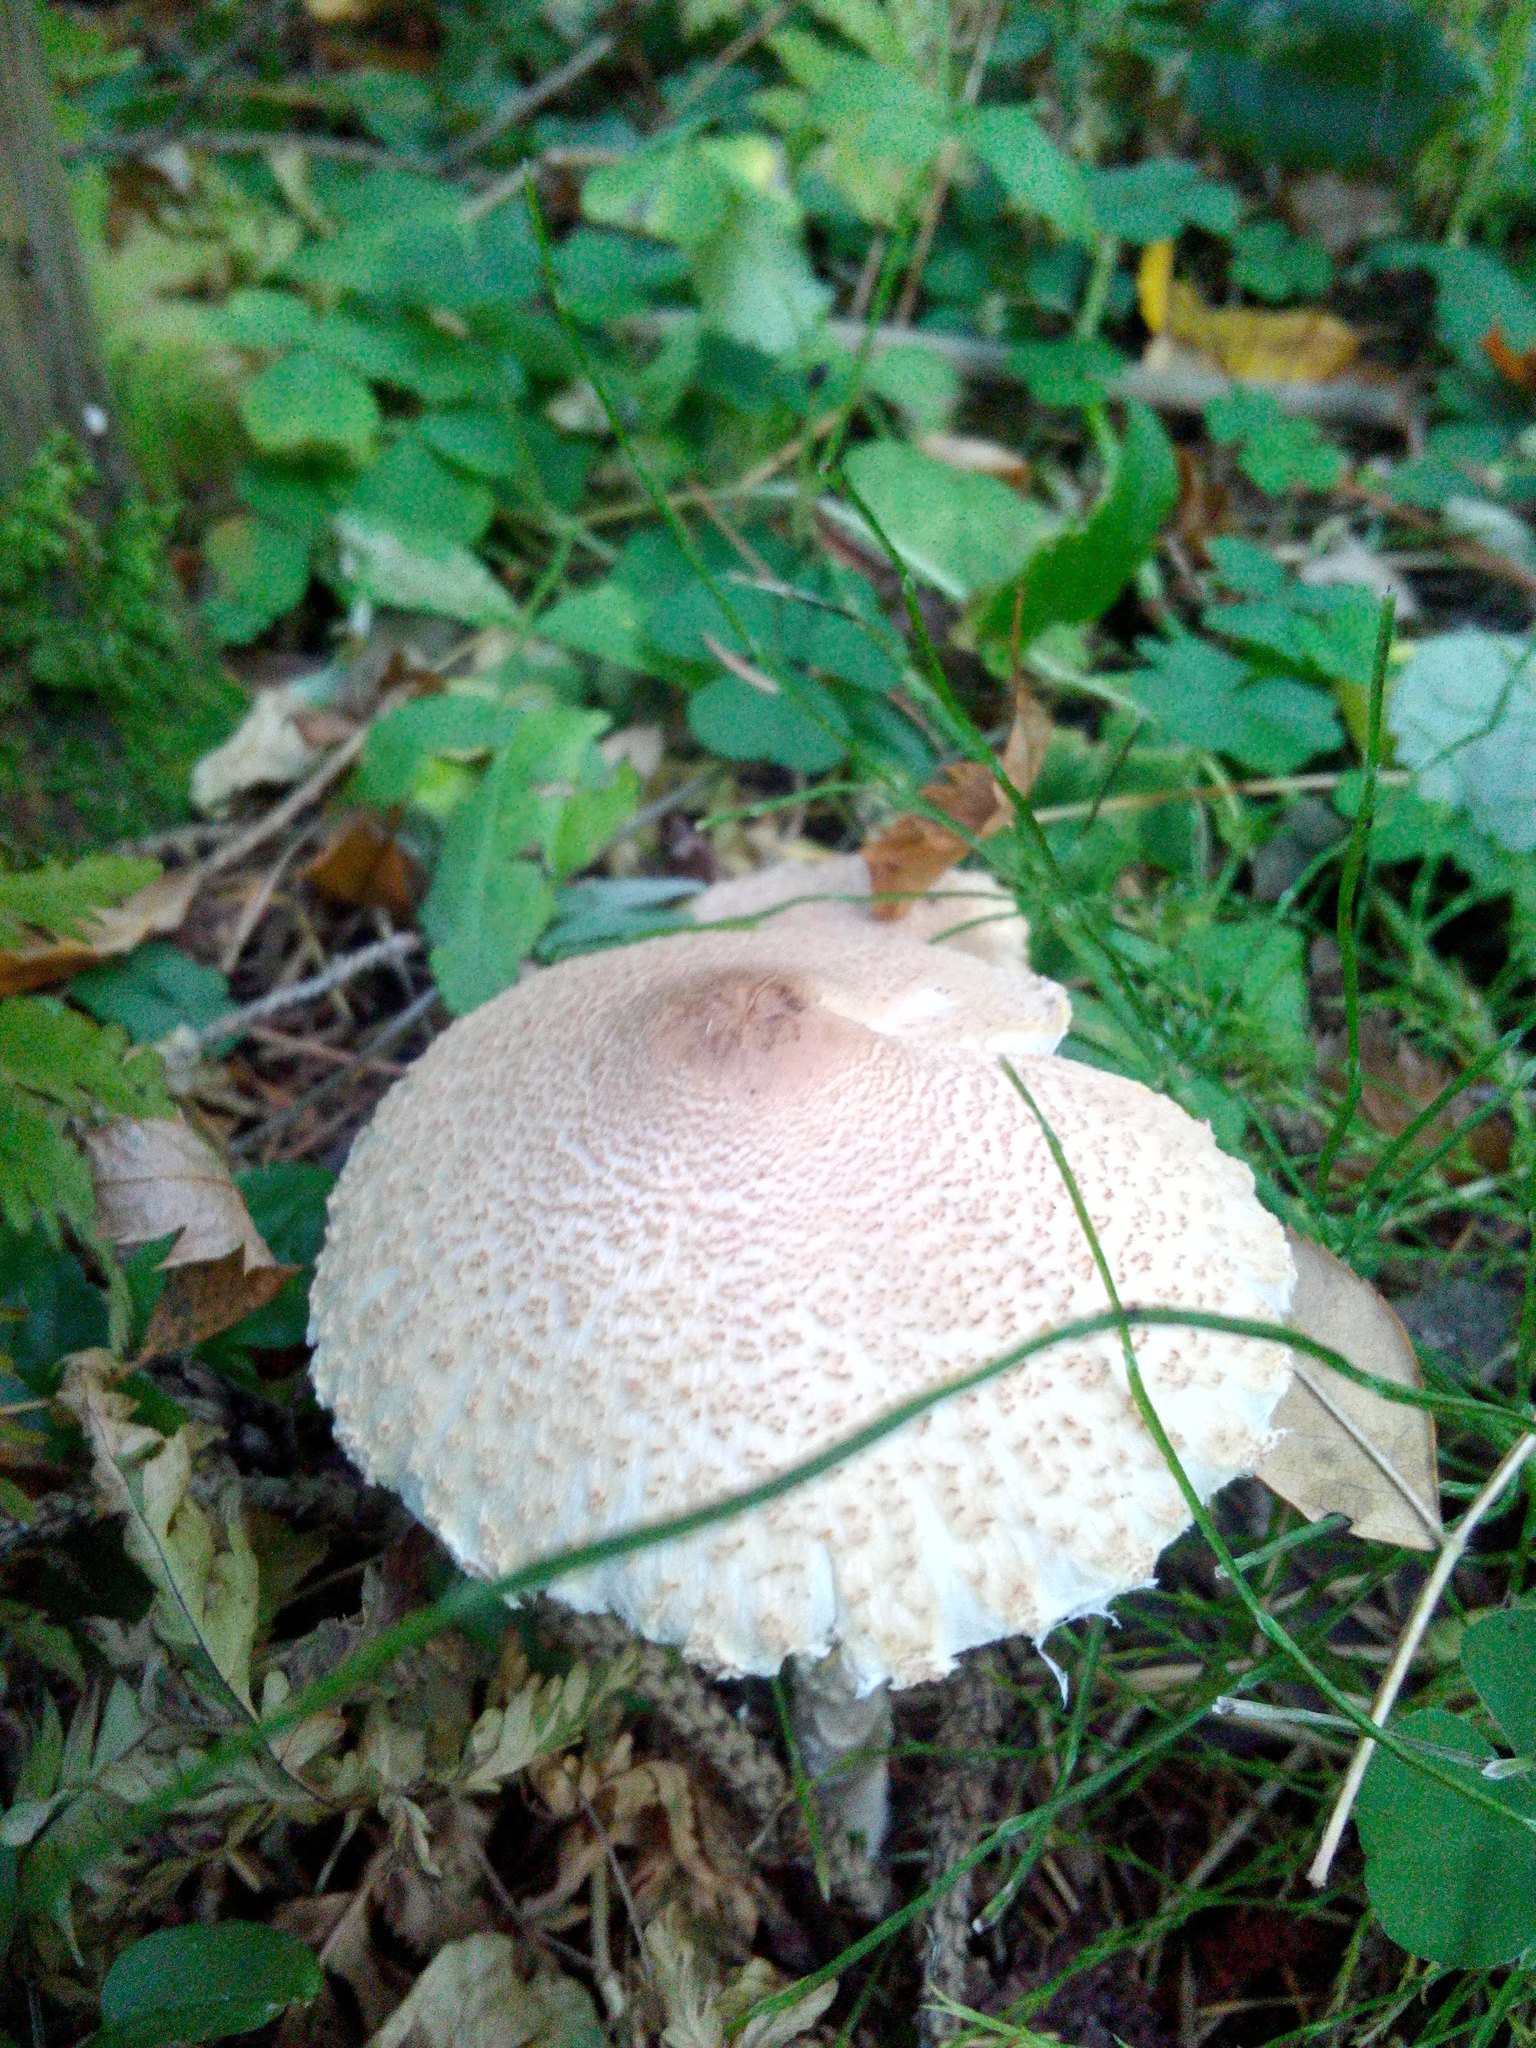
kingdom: Fungi
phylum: Basidiomycota
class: Agaricomycetes
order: Agaricales
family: Agaricaceae
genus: Lepiota
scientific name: Lepiota clypeolaria
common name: Shield dapperling
